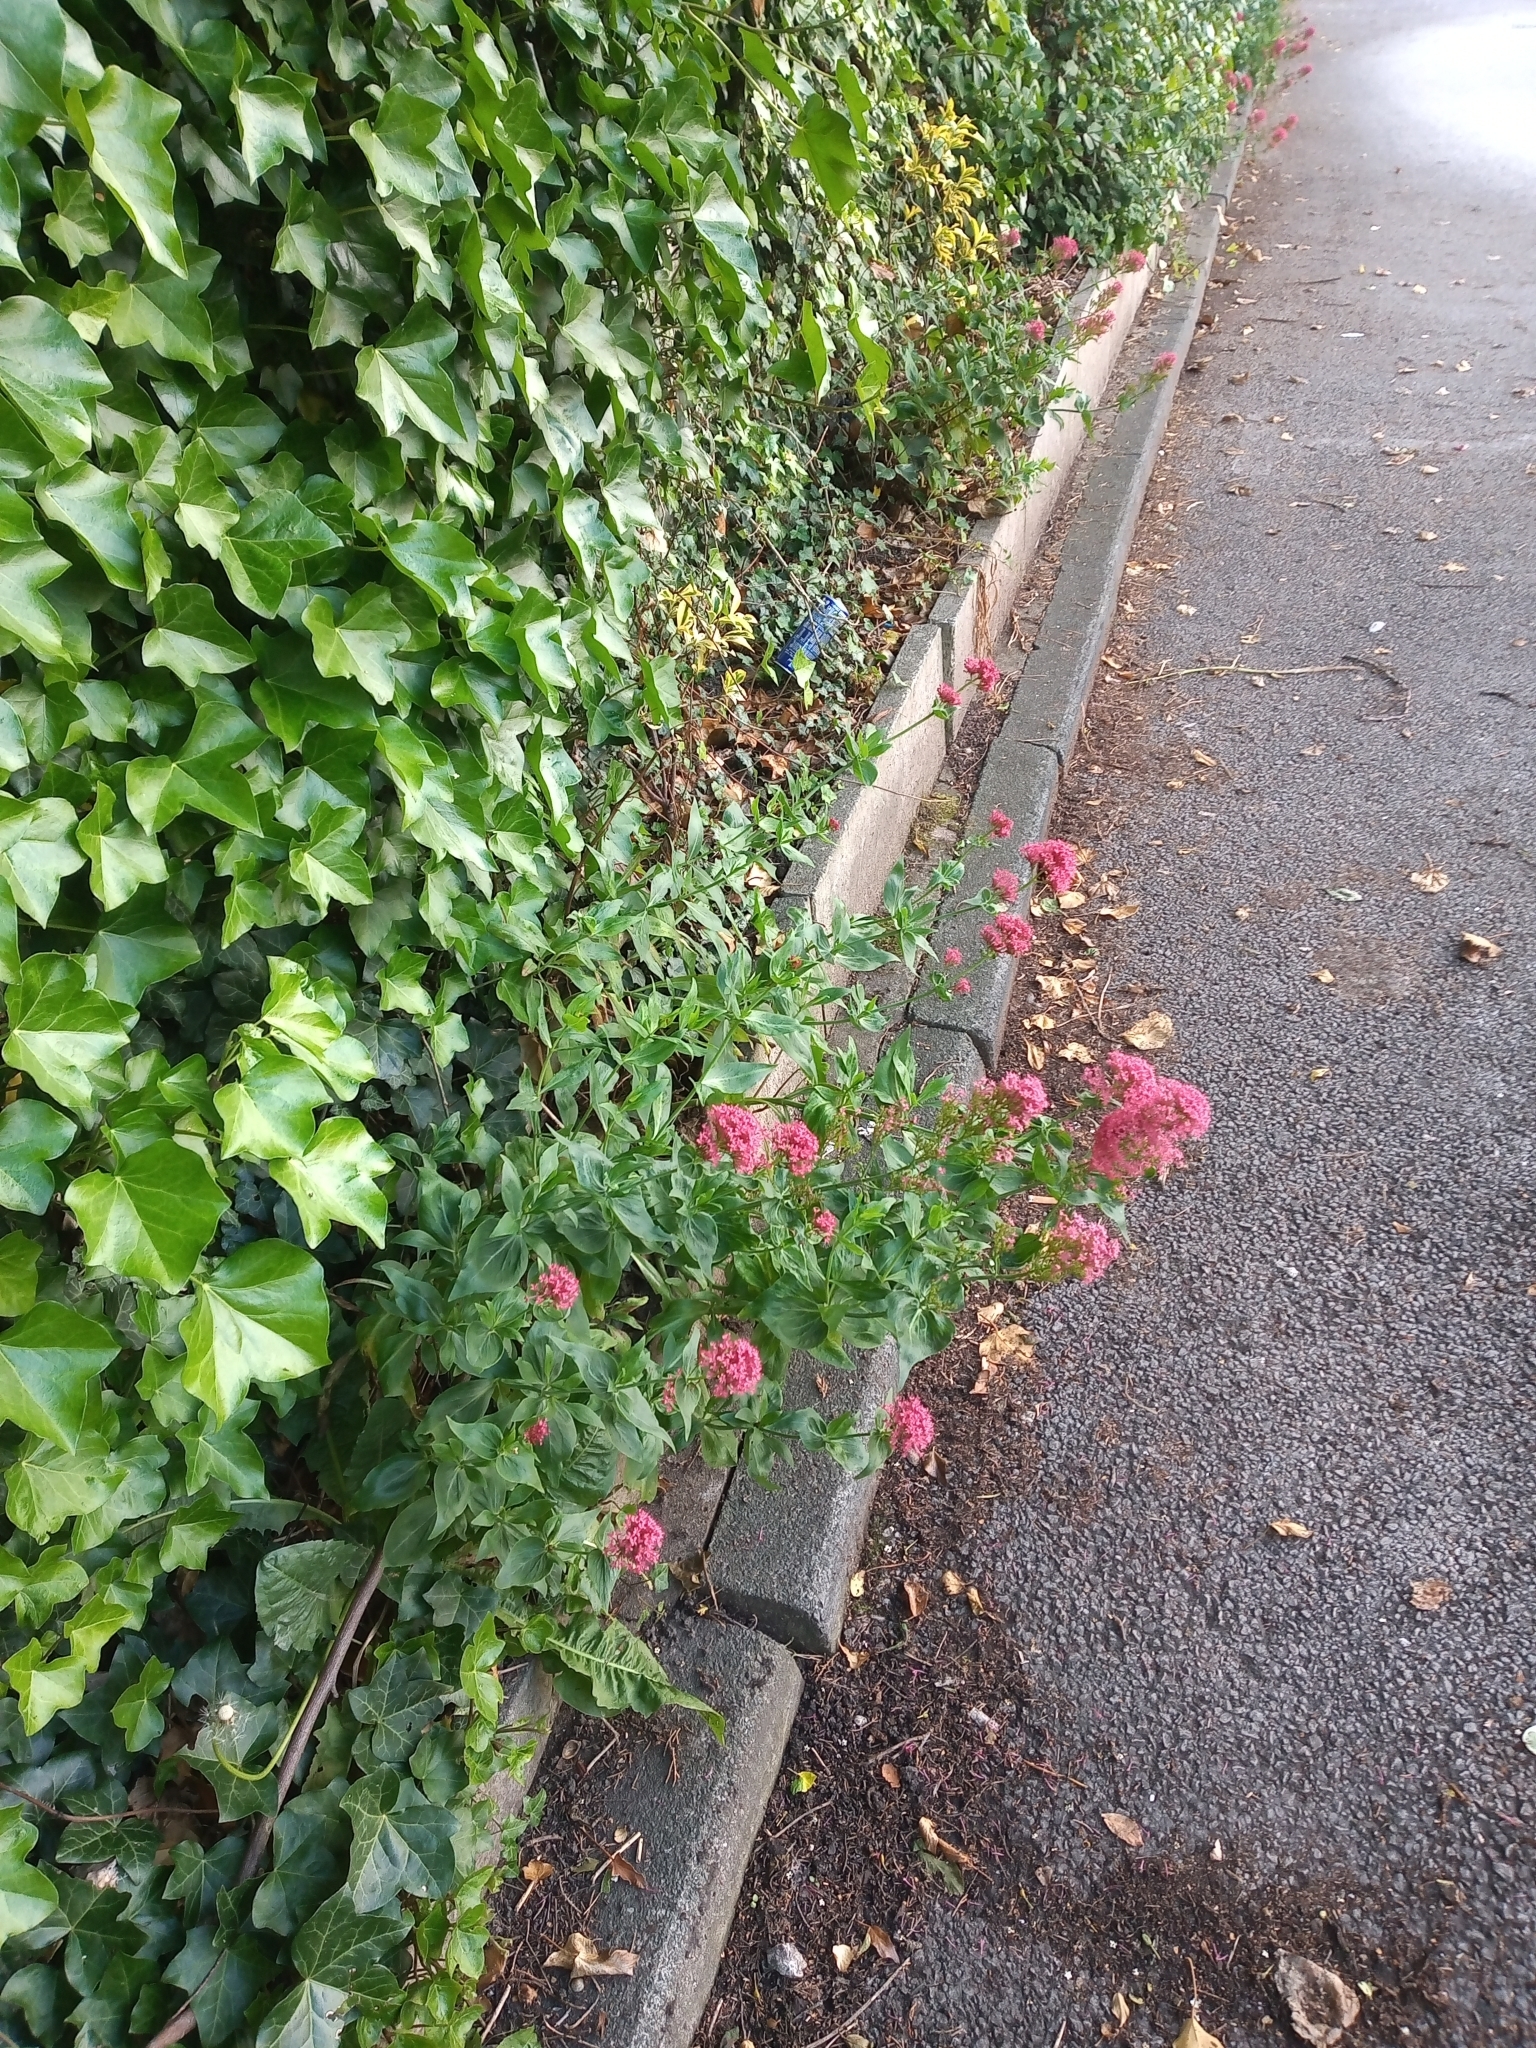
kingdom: Plantae
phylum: Tracheophyta
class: Magnoliopsida
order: Dipsacales
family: Caprifoliaceae
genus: Centranthus
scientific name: Centranthus ruber
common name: Red valerian
